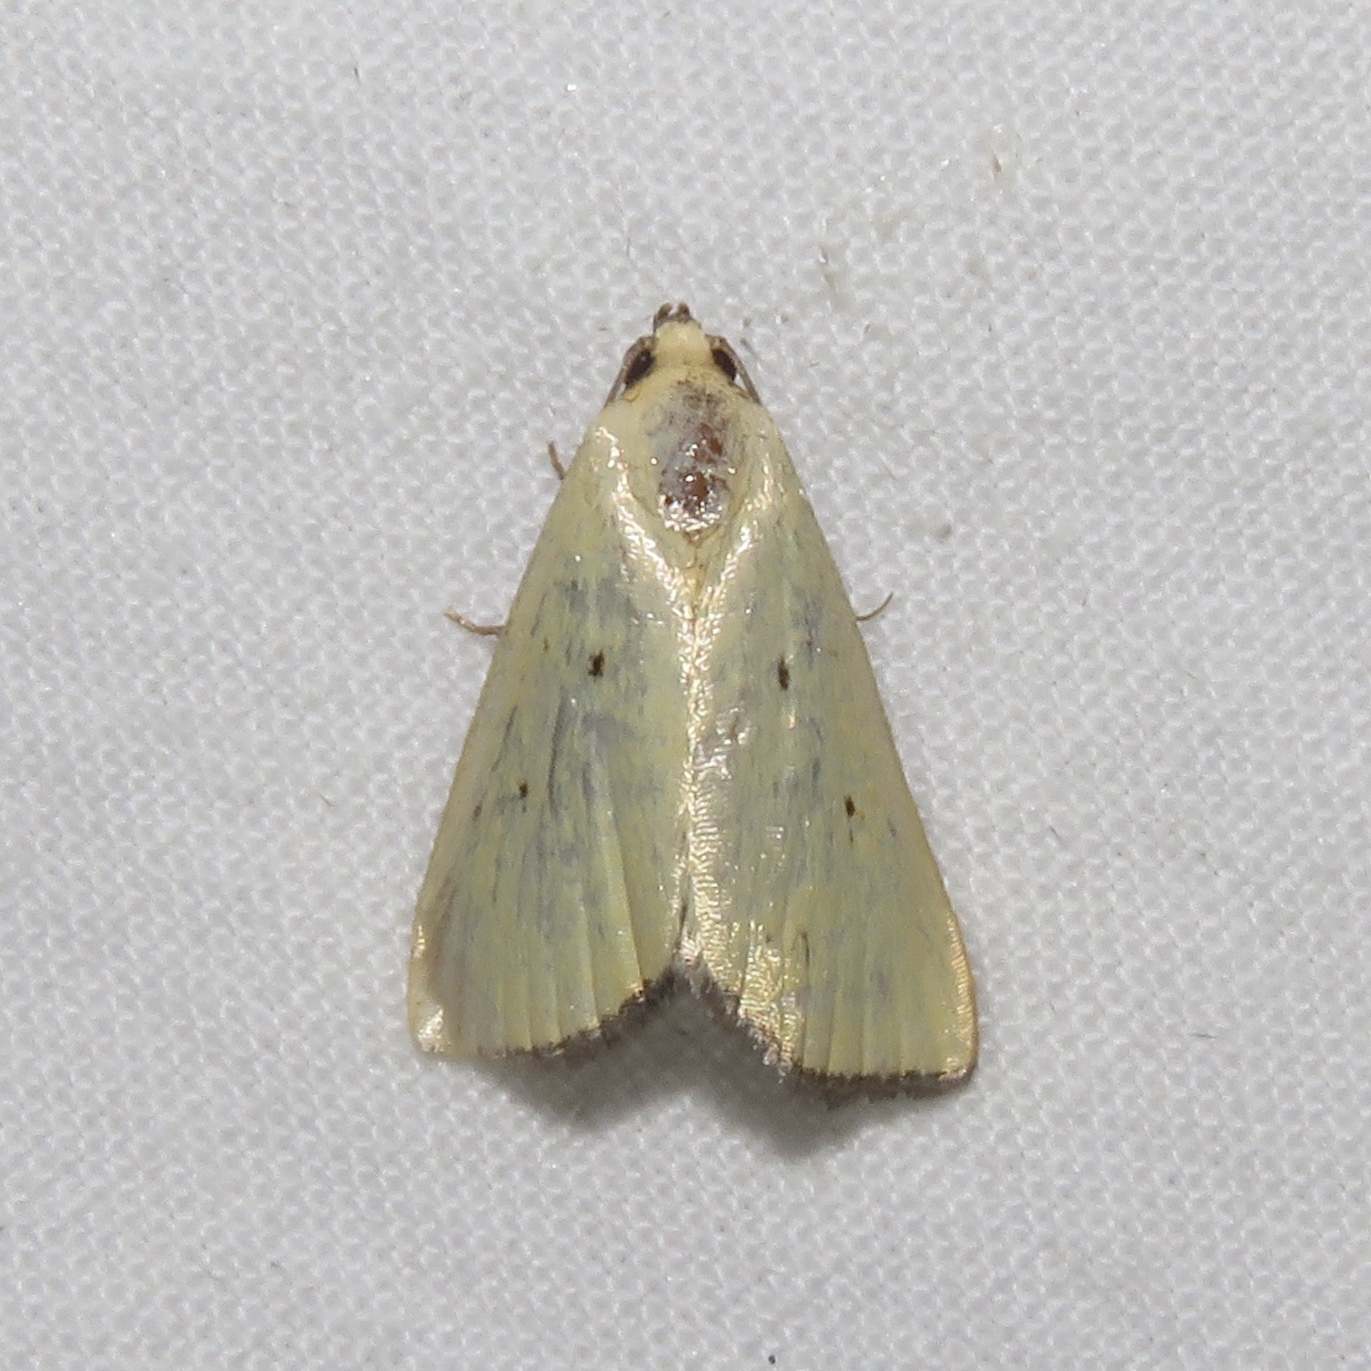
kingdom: Animalia
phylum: Arthropoda
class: Insecta
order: Lepidoptera
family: Noctuidae
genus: Marimatha
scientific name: Marimatha nigrofimbria
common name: Black-bordered lemon moth
